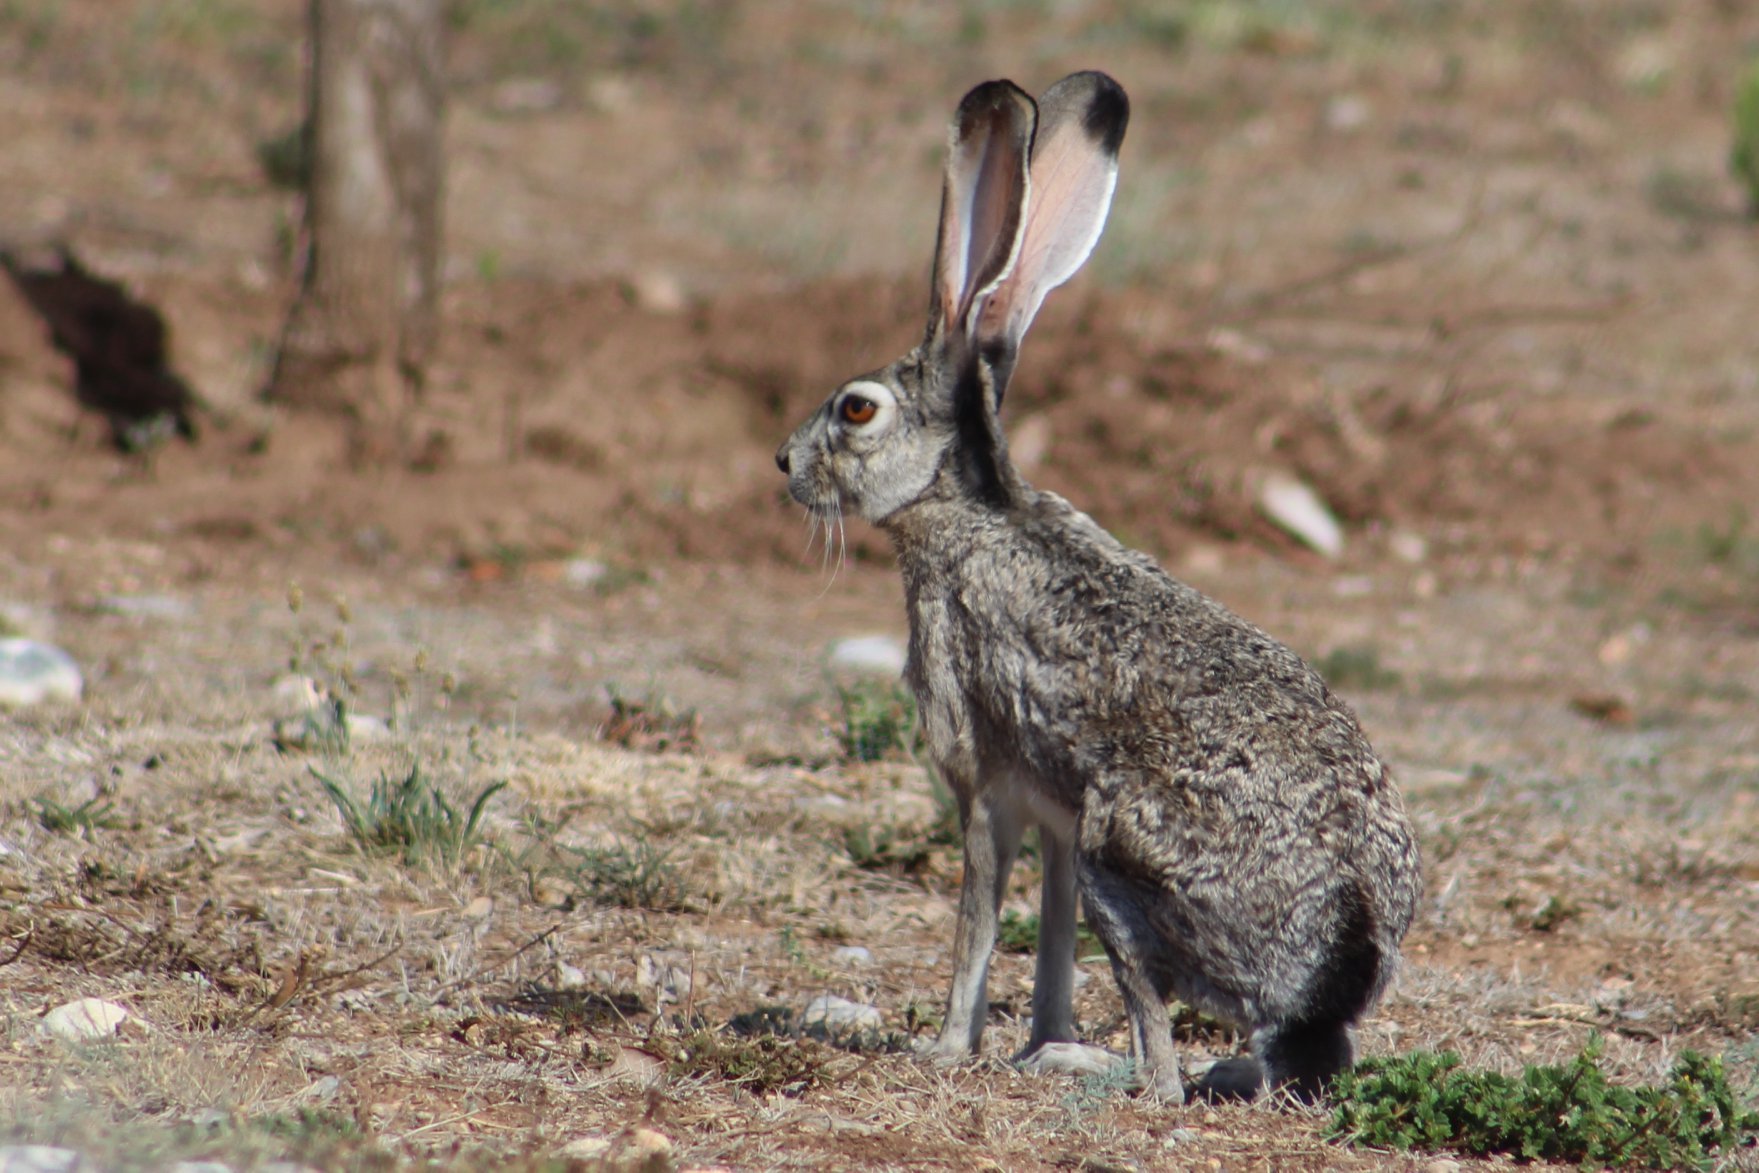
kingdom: Animalia
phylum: Chordata
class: Mammalia
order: Lagomorpha
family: Leporidae
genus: Lepus
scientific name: Lepus californicus
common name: Black-tailed jackrabbit
